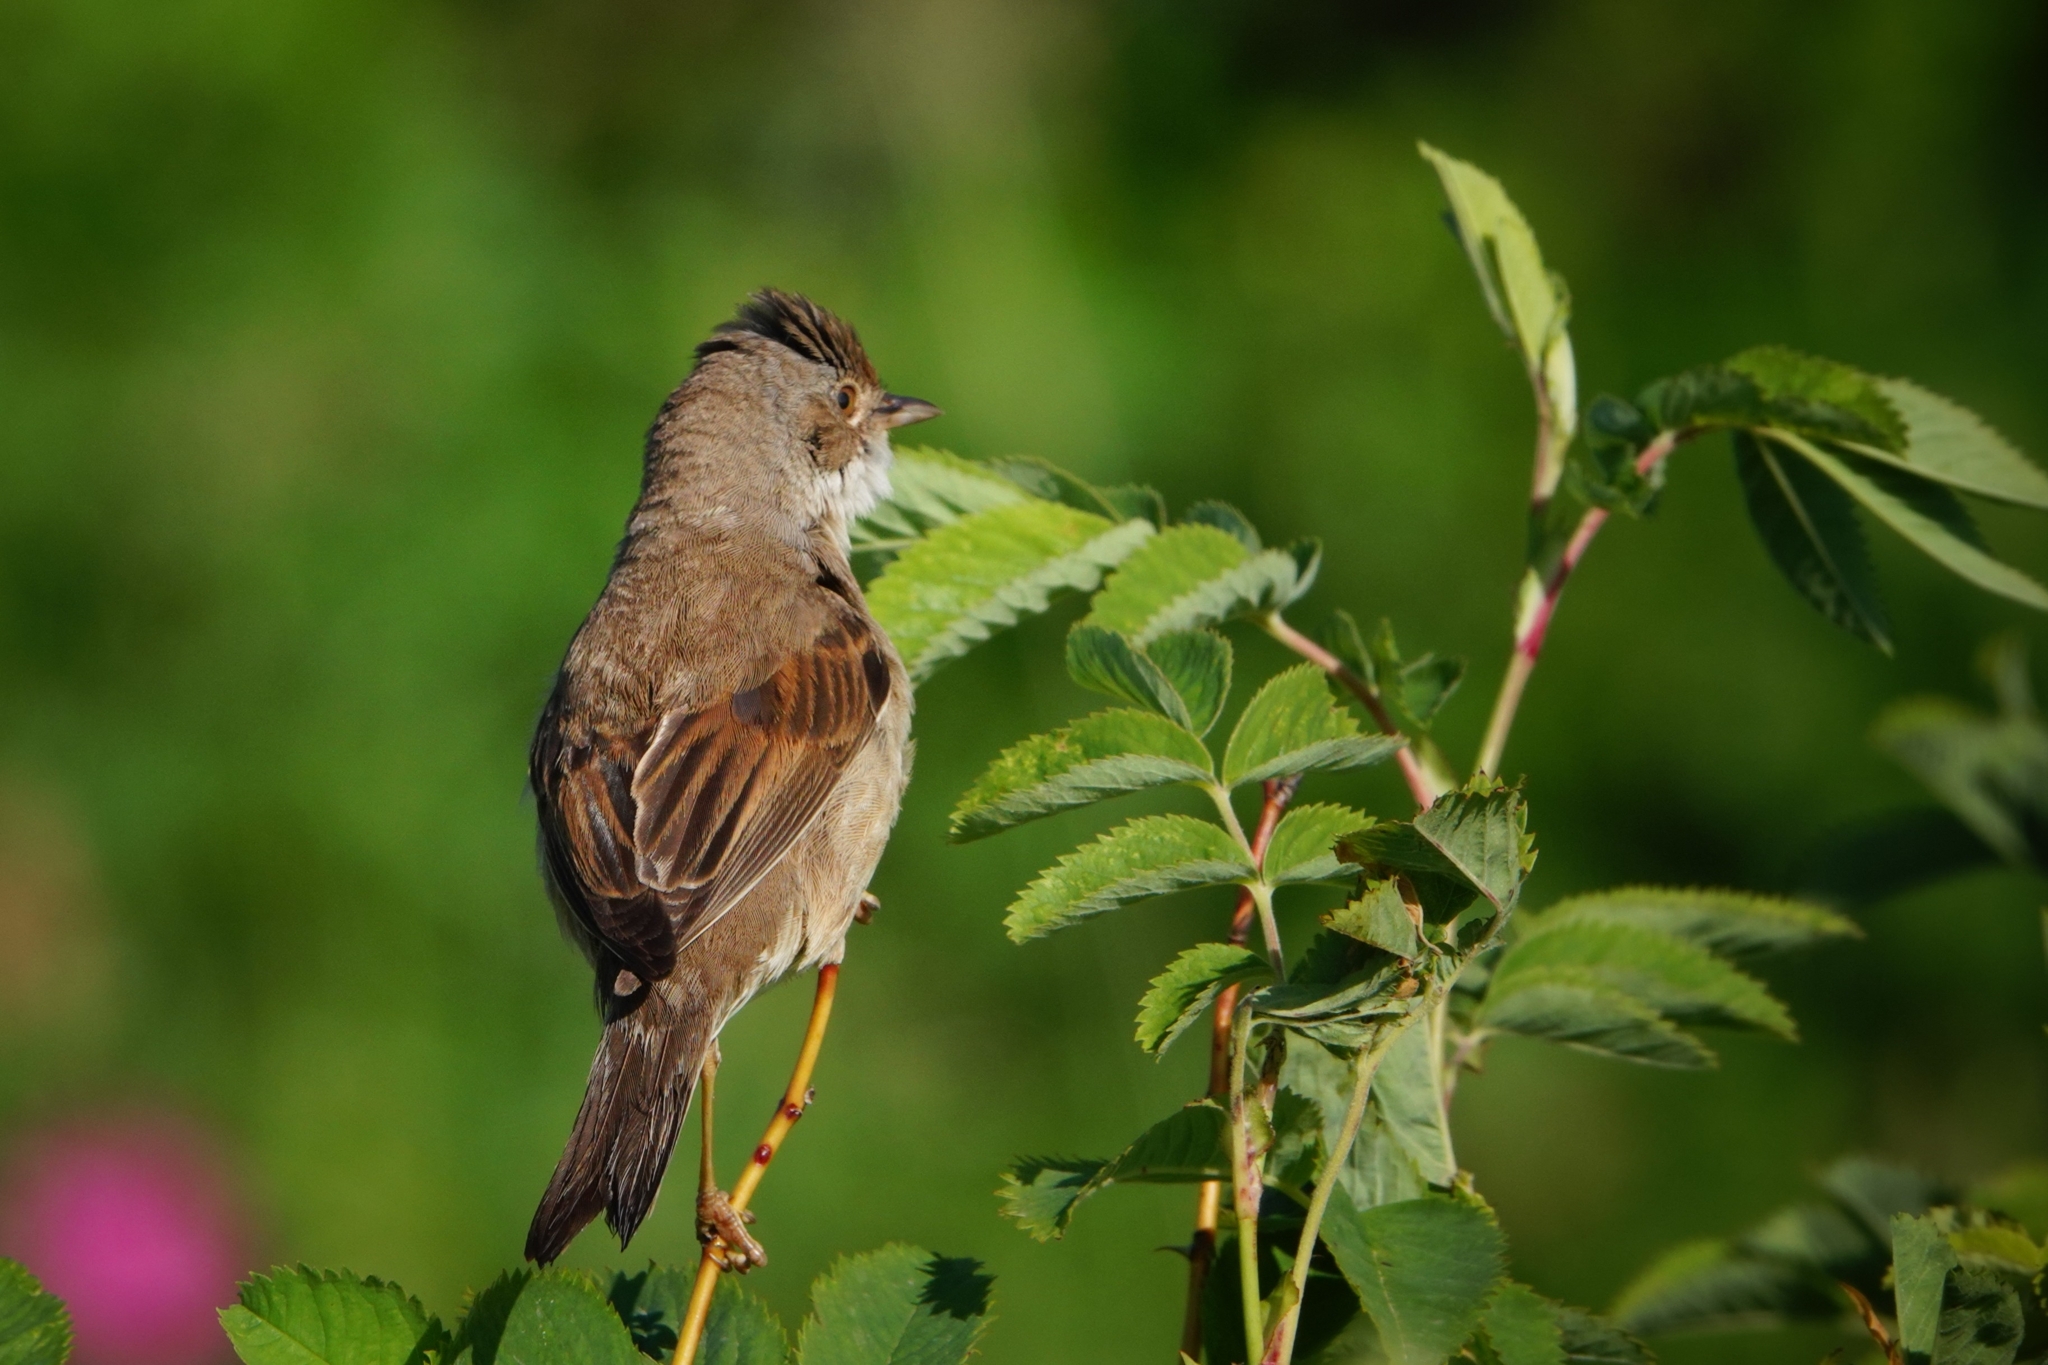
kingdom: Animalia
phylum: Chordata
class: Aves
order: Passeriformes
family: Sylviidae
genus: Sylvia
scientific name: Sylvia communis
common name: Common whitethroat
